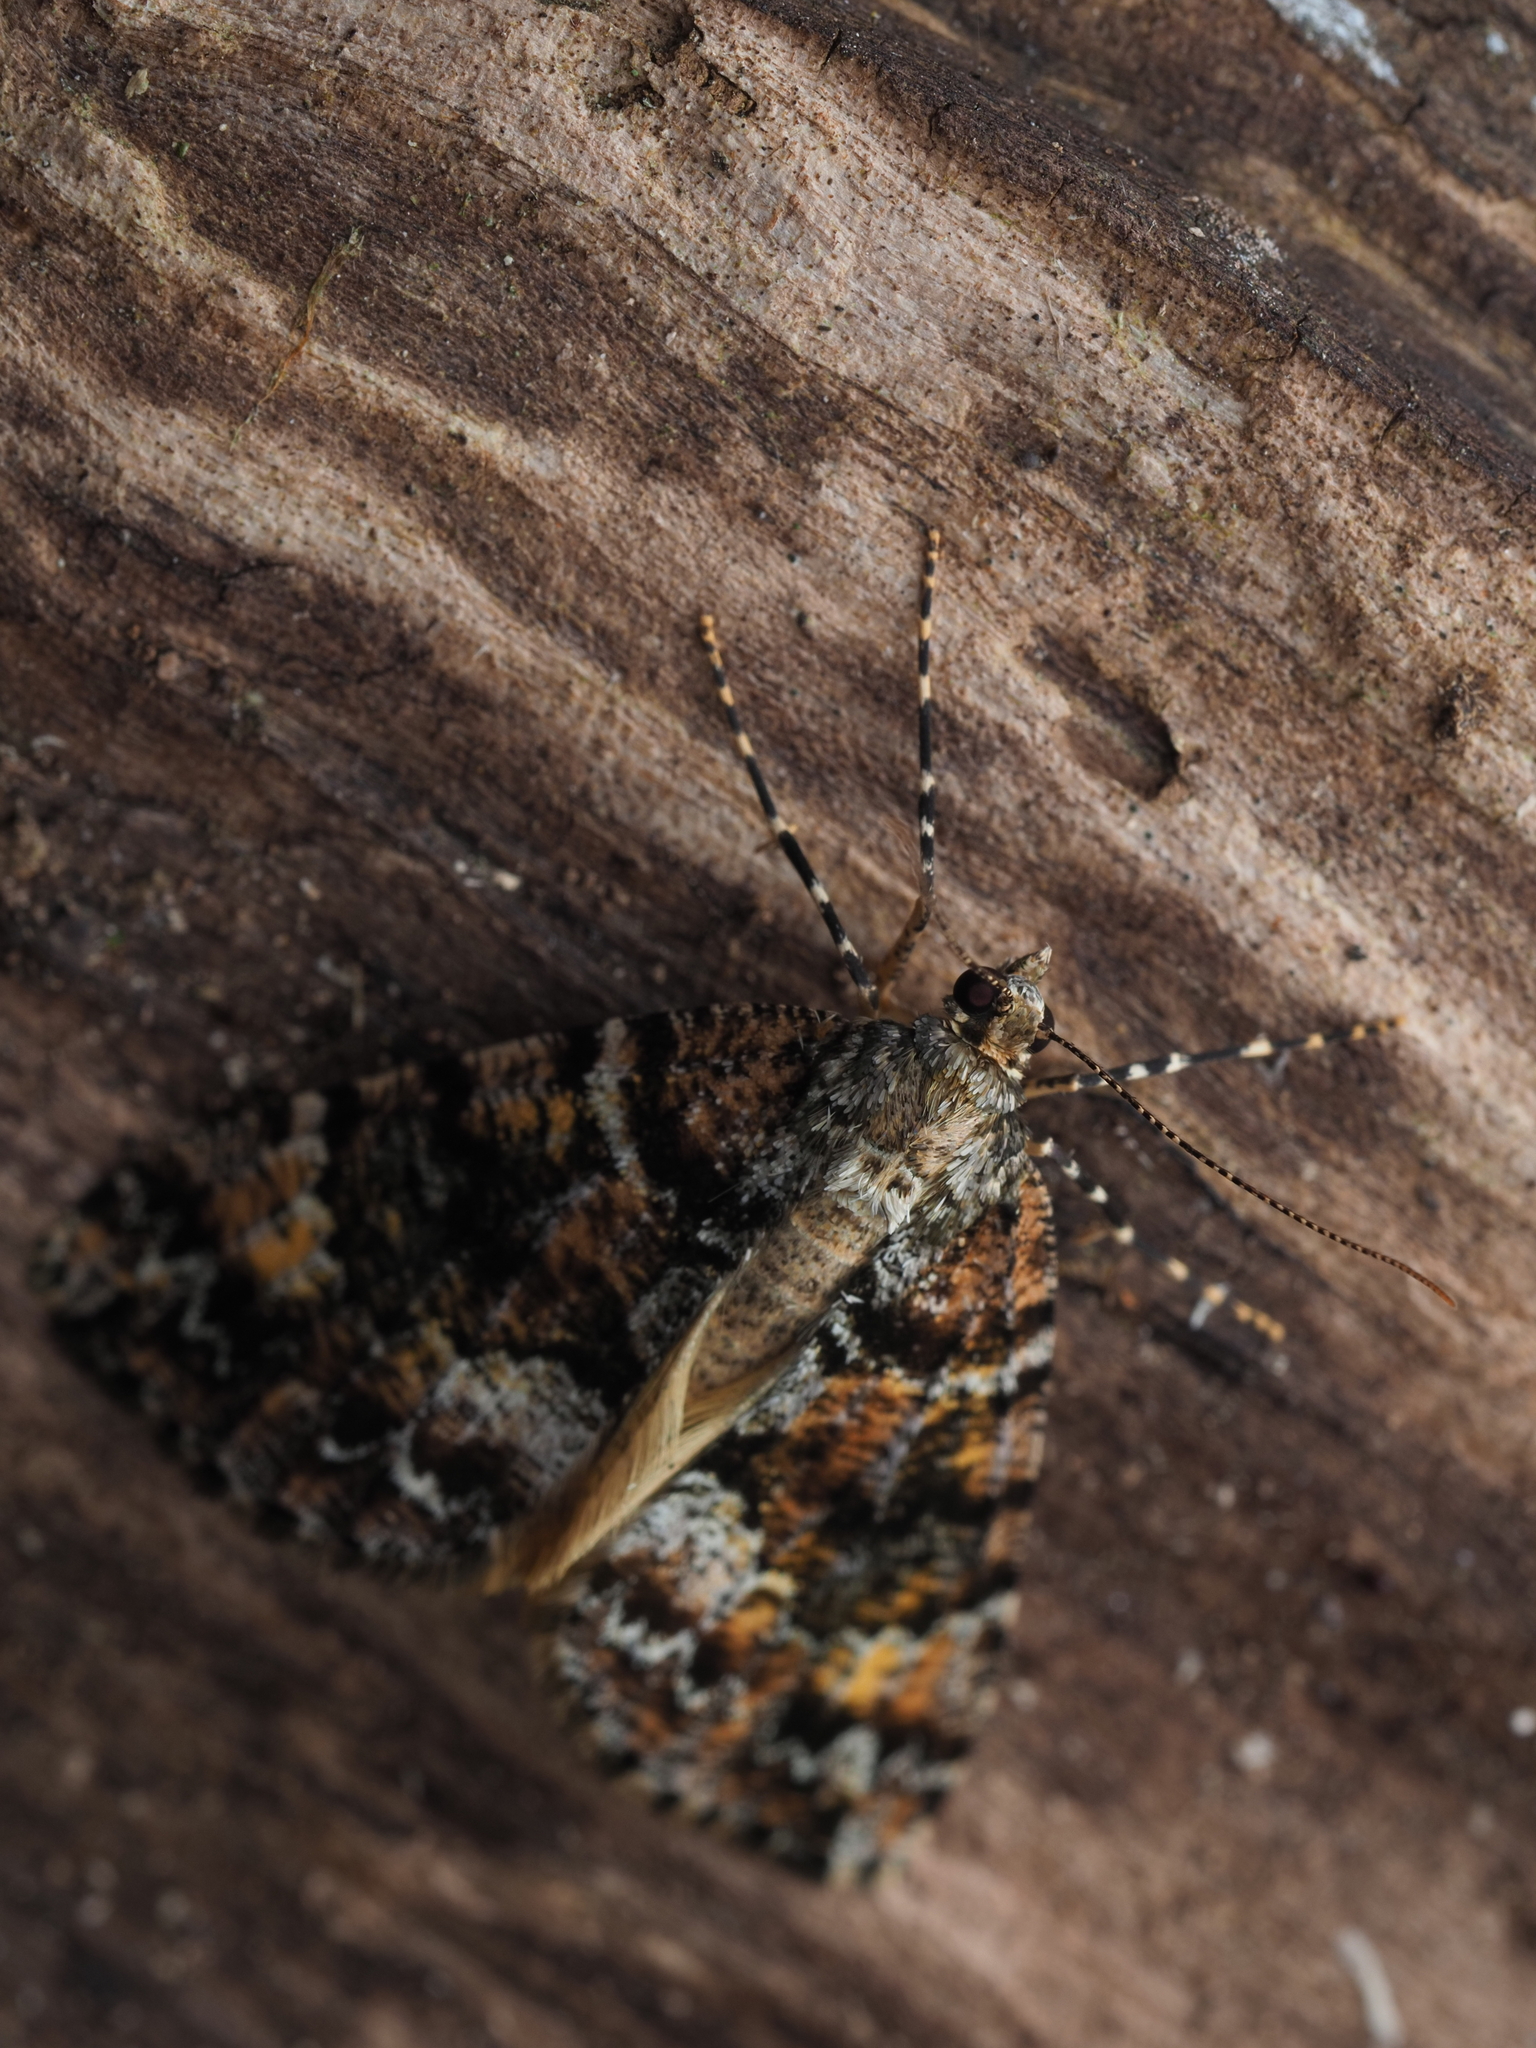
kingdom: Animalia
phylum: Arthropoda
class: Insecta
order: Lepidoptera
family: Geometridae
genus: Pseudocoremia
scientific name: Pseudocoremia productata
